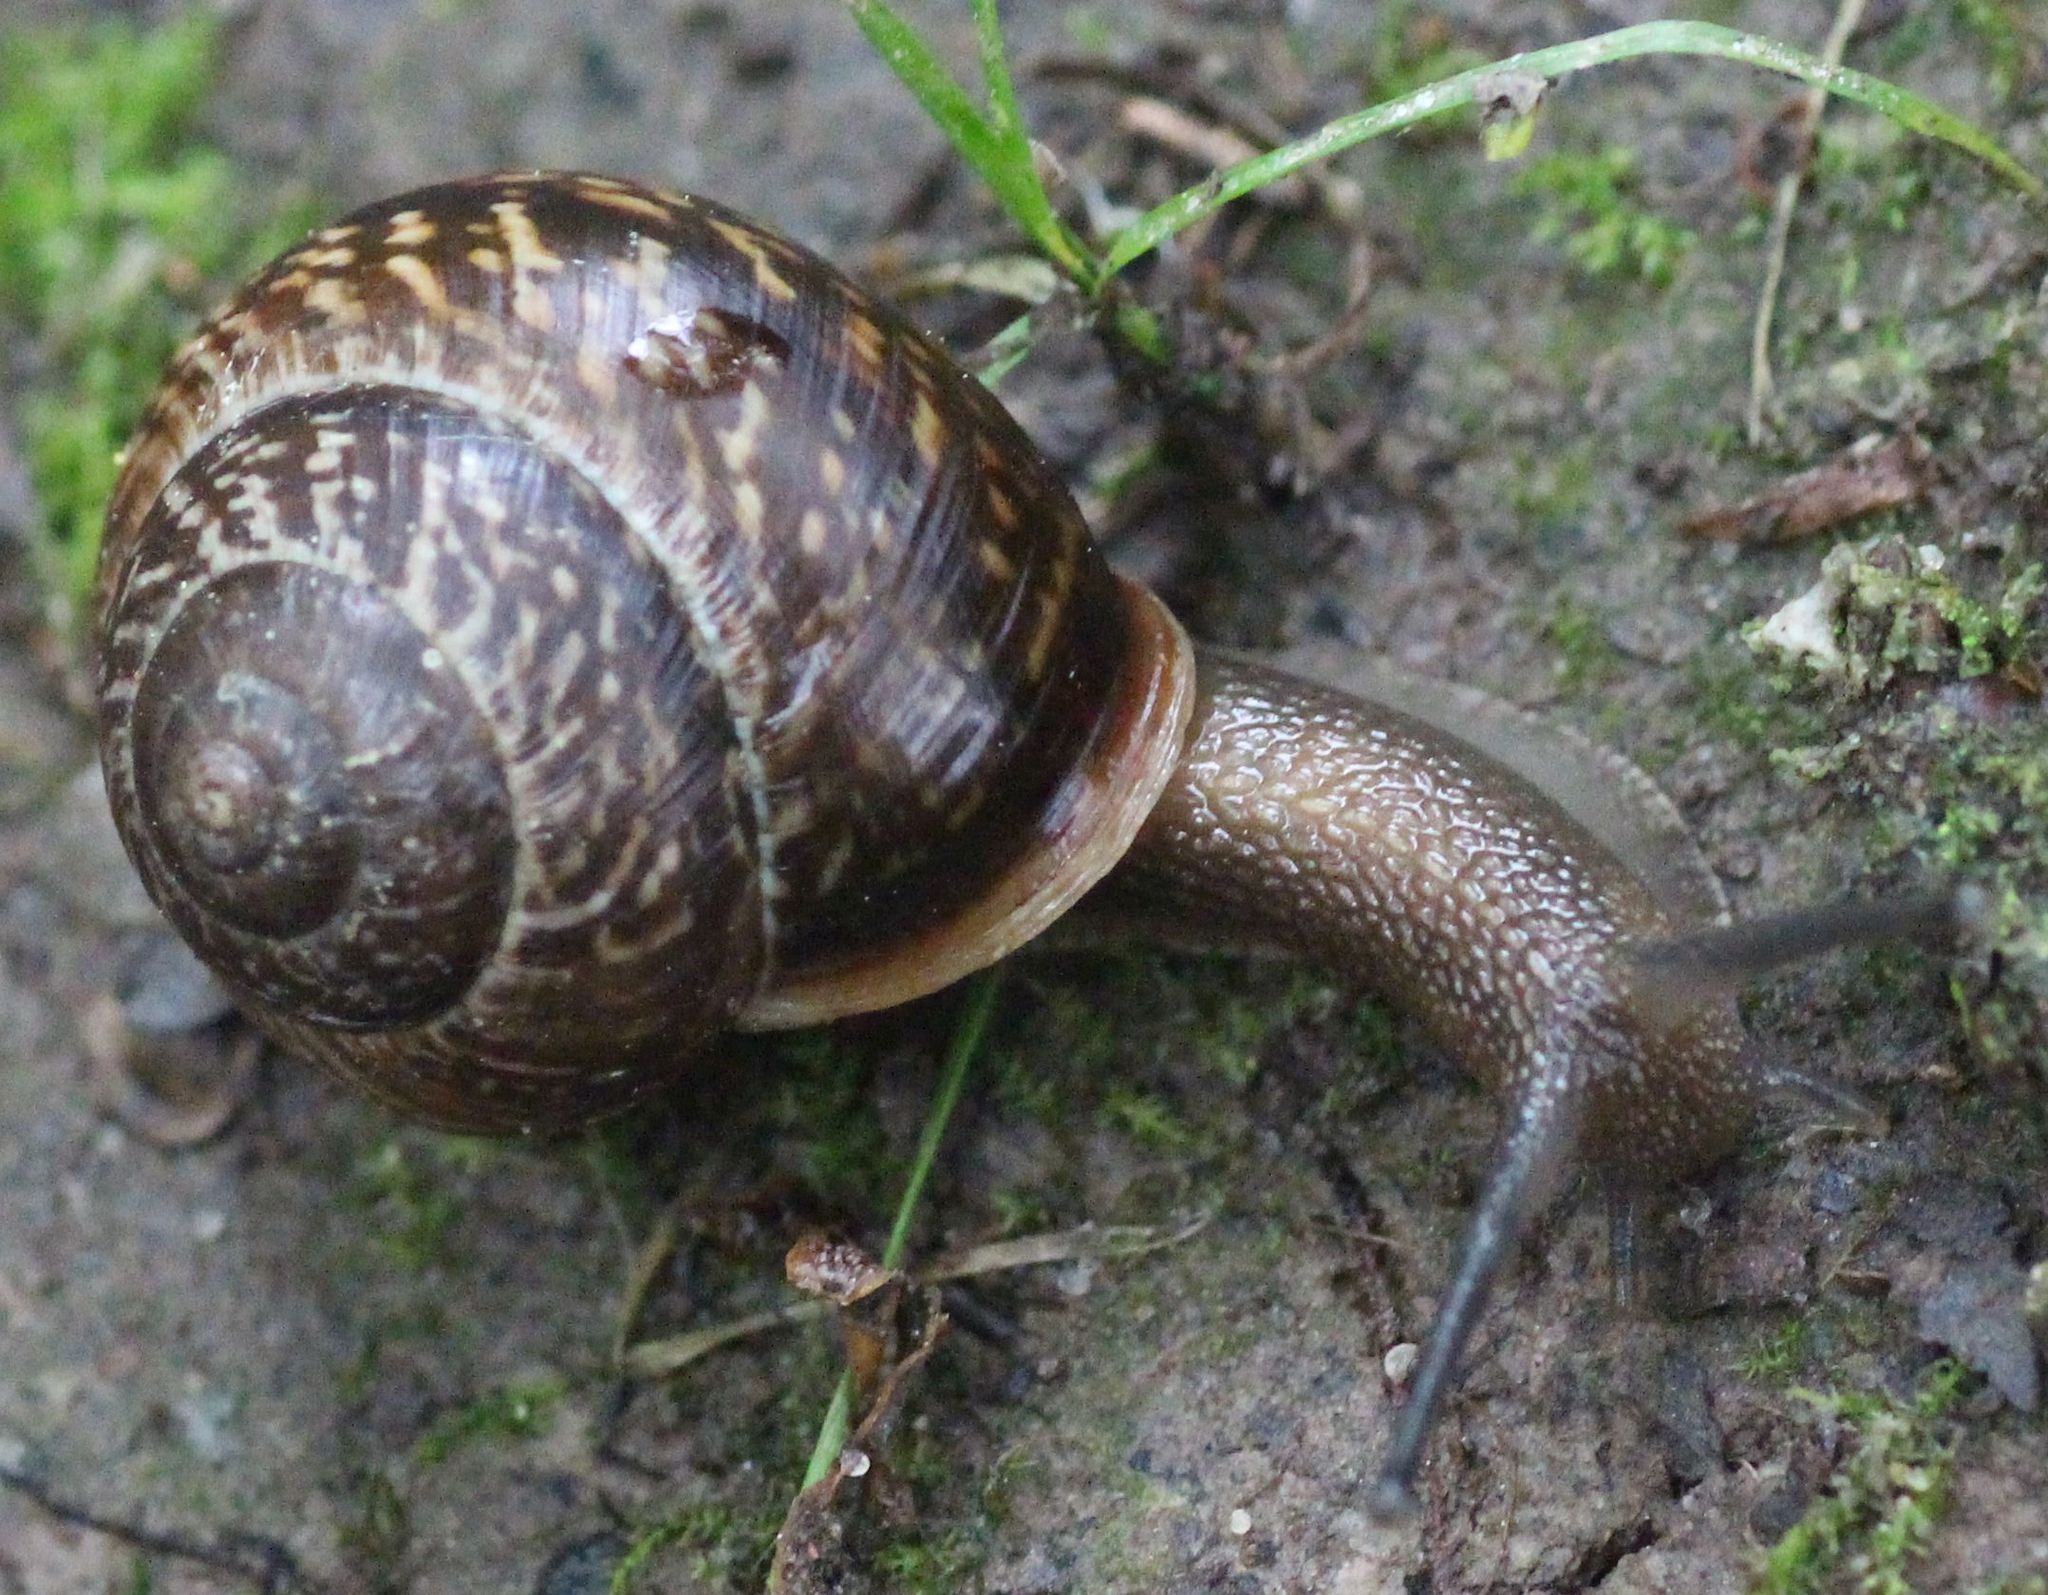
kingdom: Animalia
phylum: Mollusca
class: Gastropoda
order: Stylommatophora
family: Helicidae
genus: Arianta
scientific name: Arianta arbustorum
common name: Copse snail
